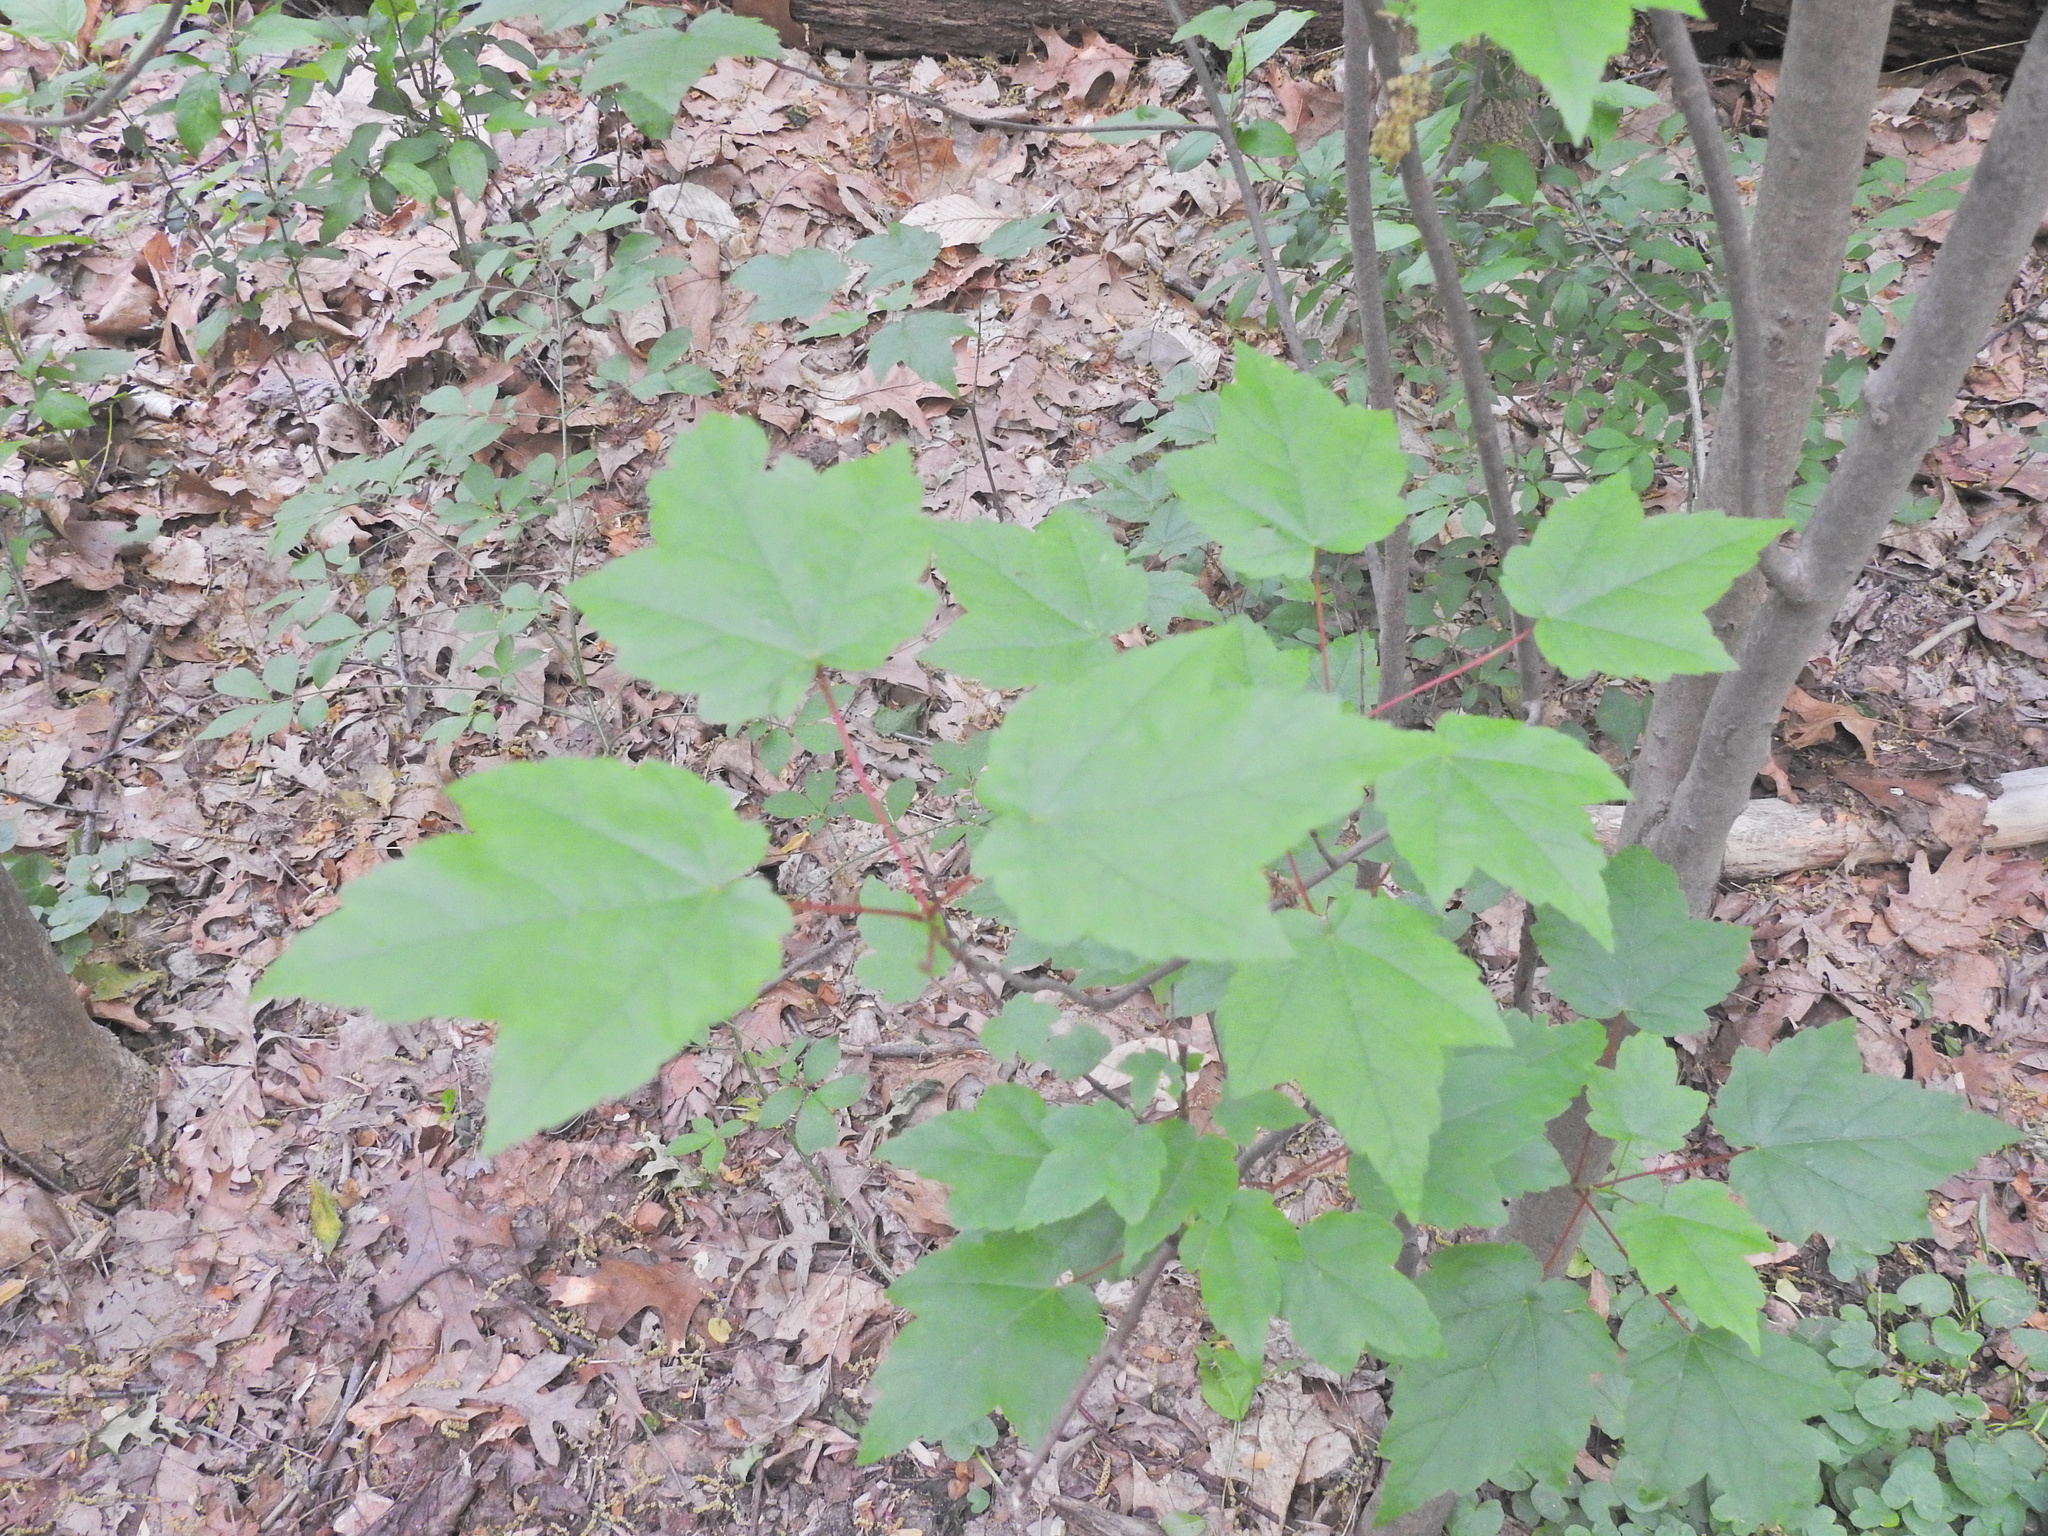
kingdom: Plantae
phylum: Tracheophyta
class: Magnoliopsida
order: Sapindales
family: Sapindaceae
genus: Acer
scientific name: Acer rubrum
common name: Red maple
